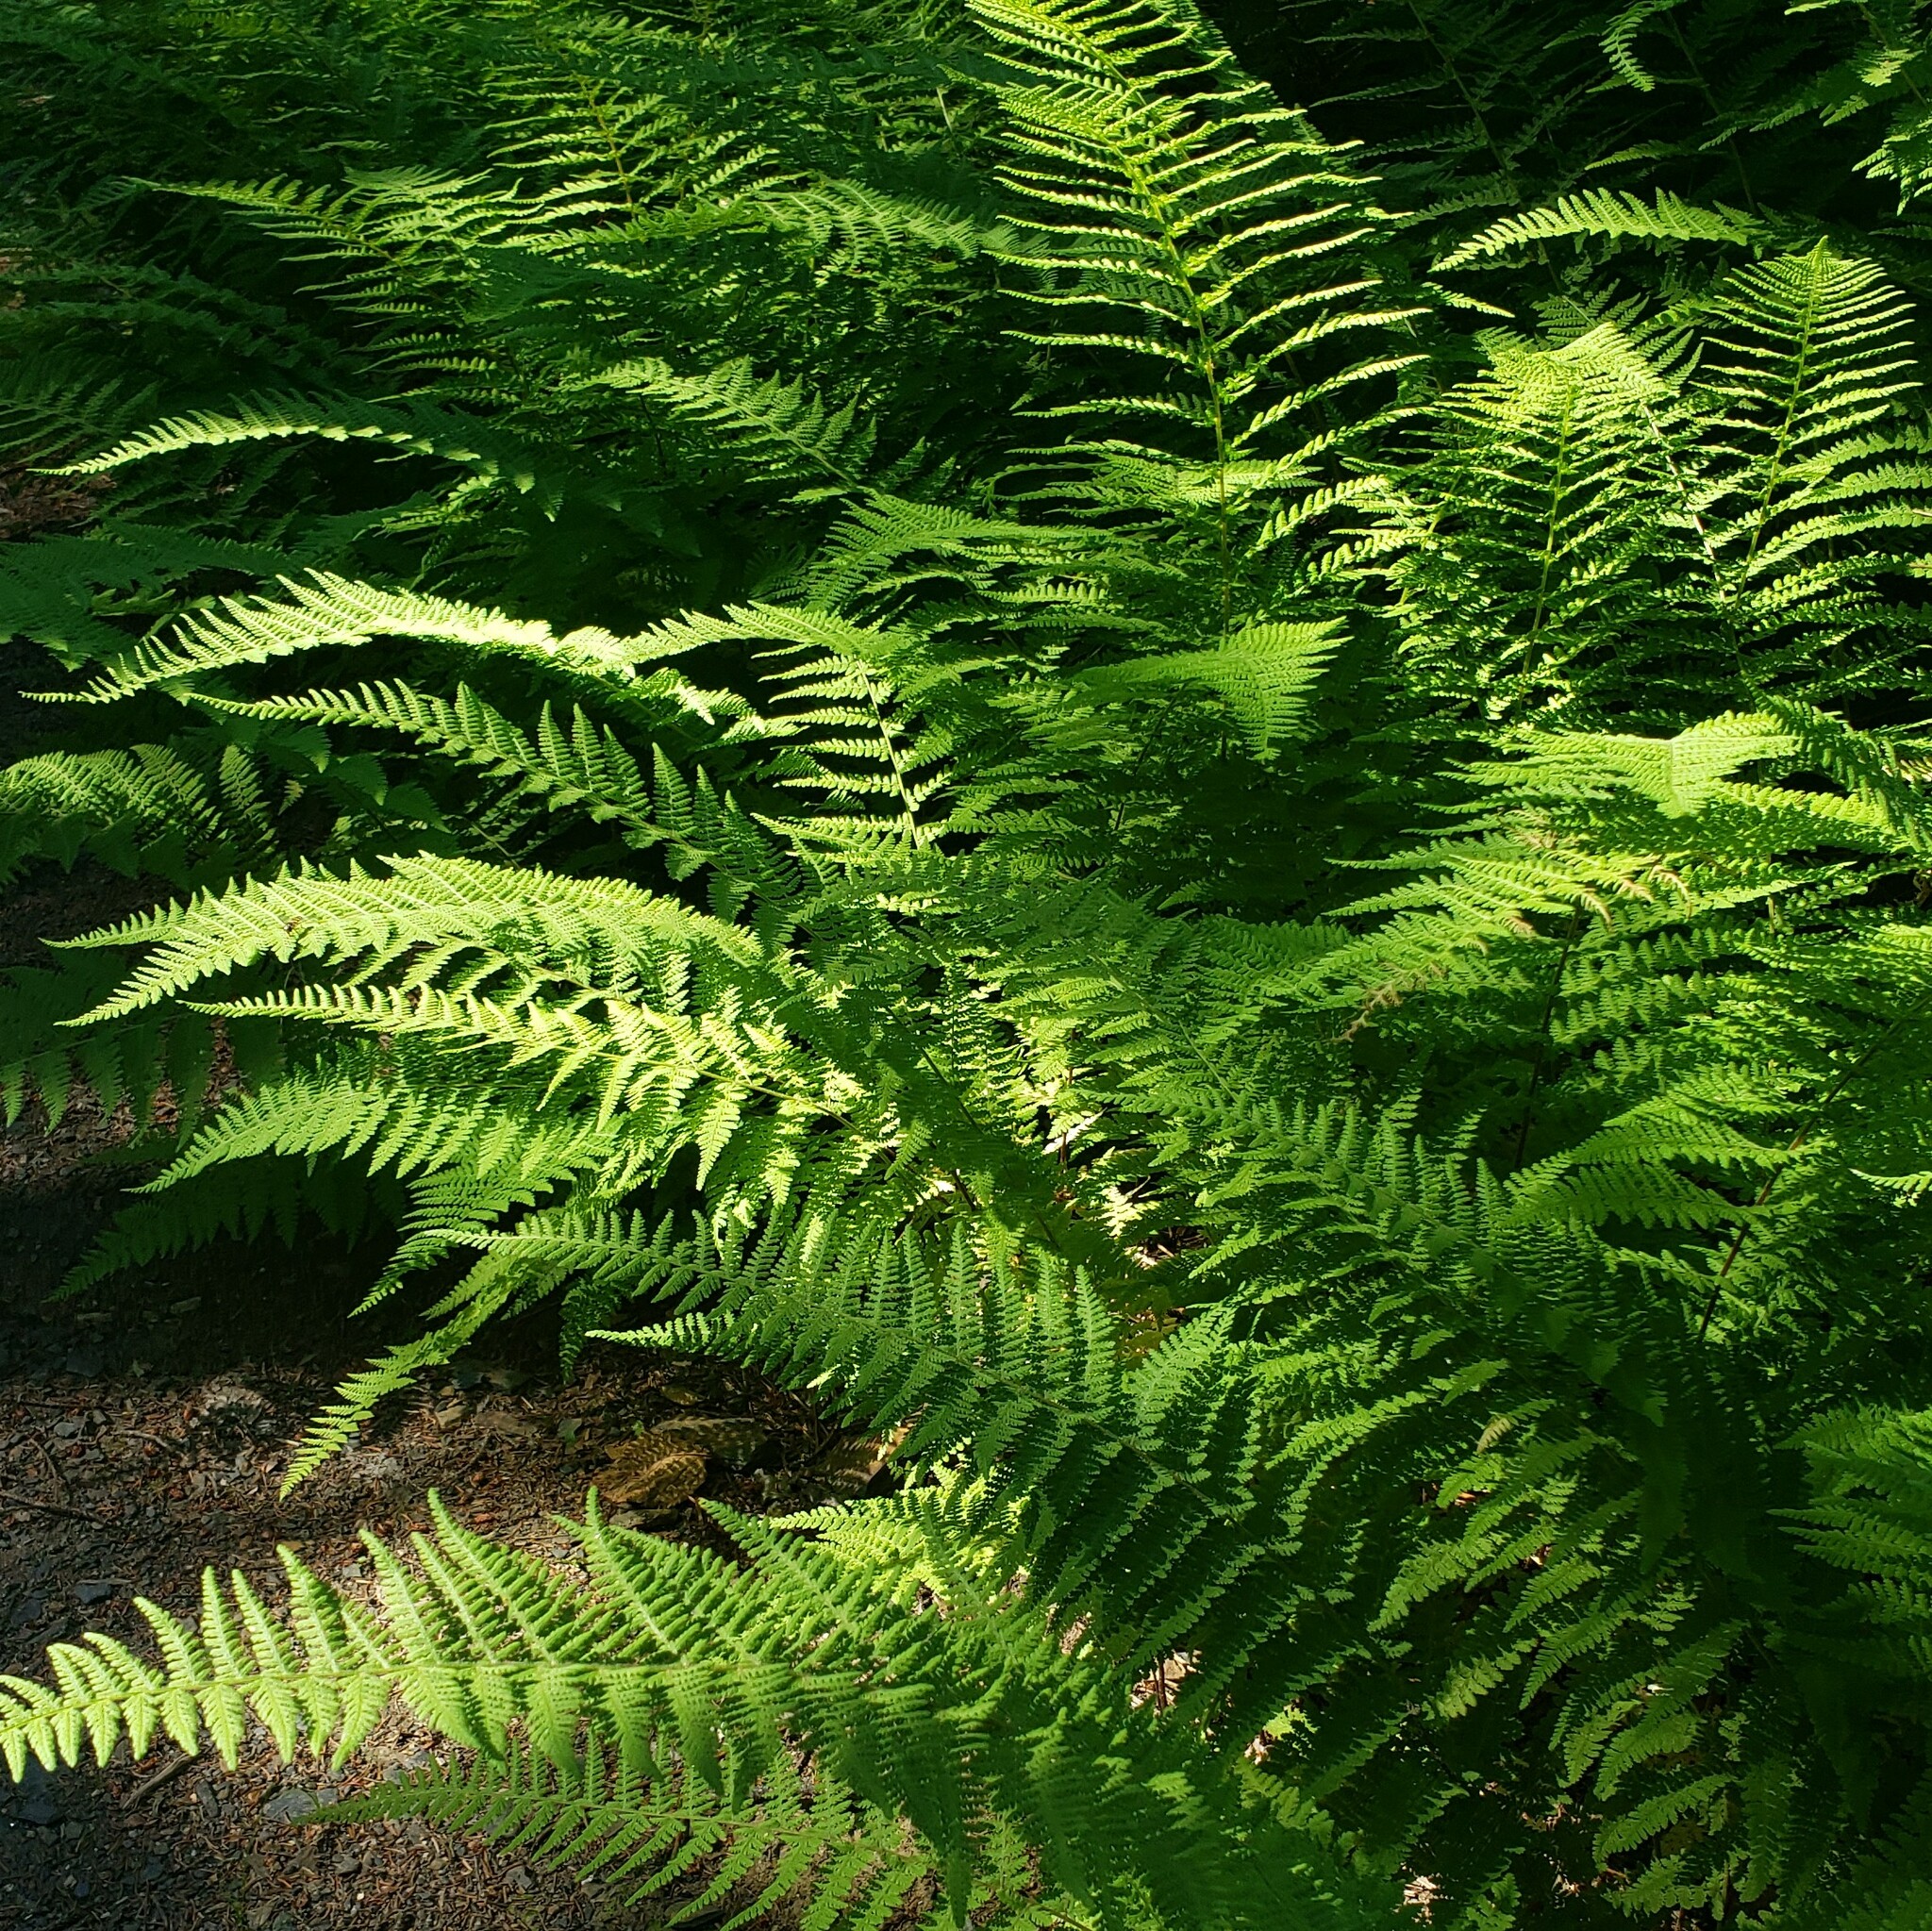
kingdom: Plantae
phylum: Tracheophyta
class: Polypodiopsida
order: Polypodiales
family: Dennstaedtiaceae
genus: Sitobolium
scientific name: Sitobolium punctilobum
